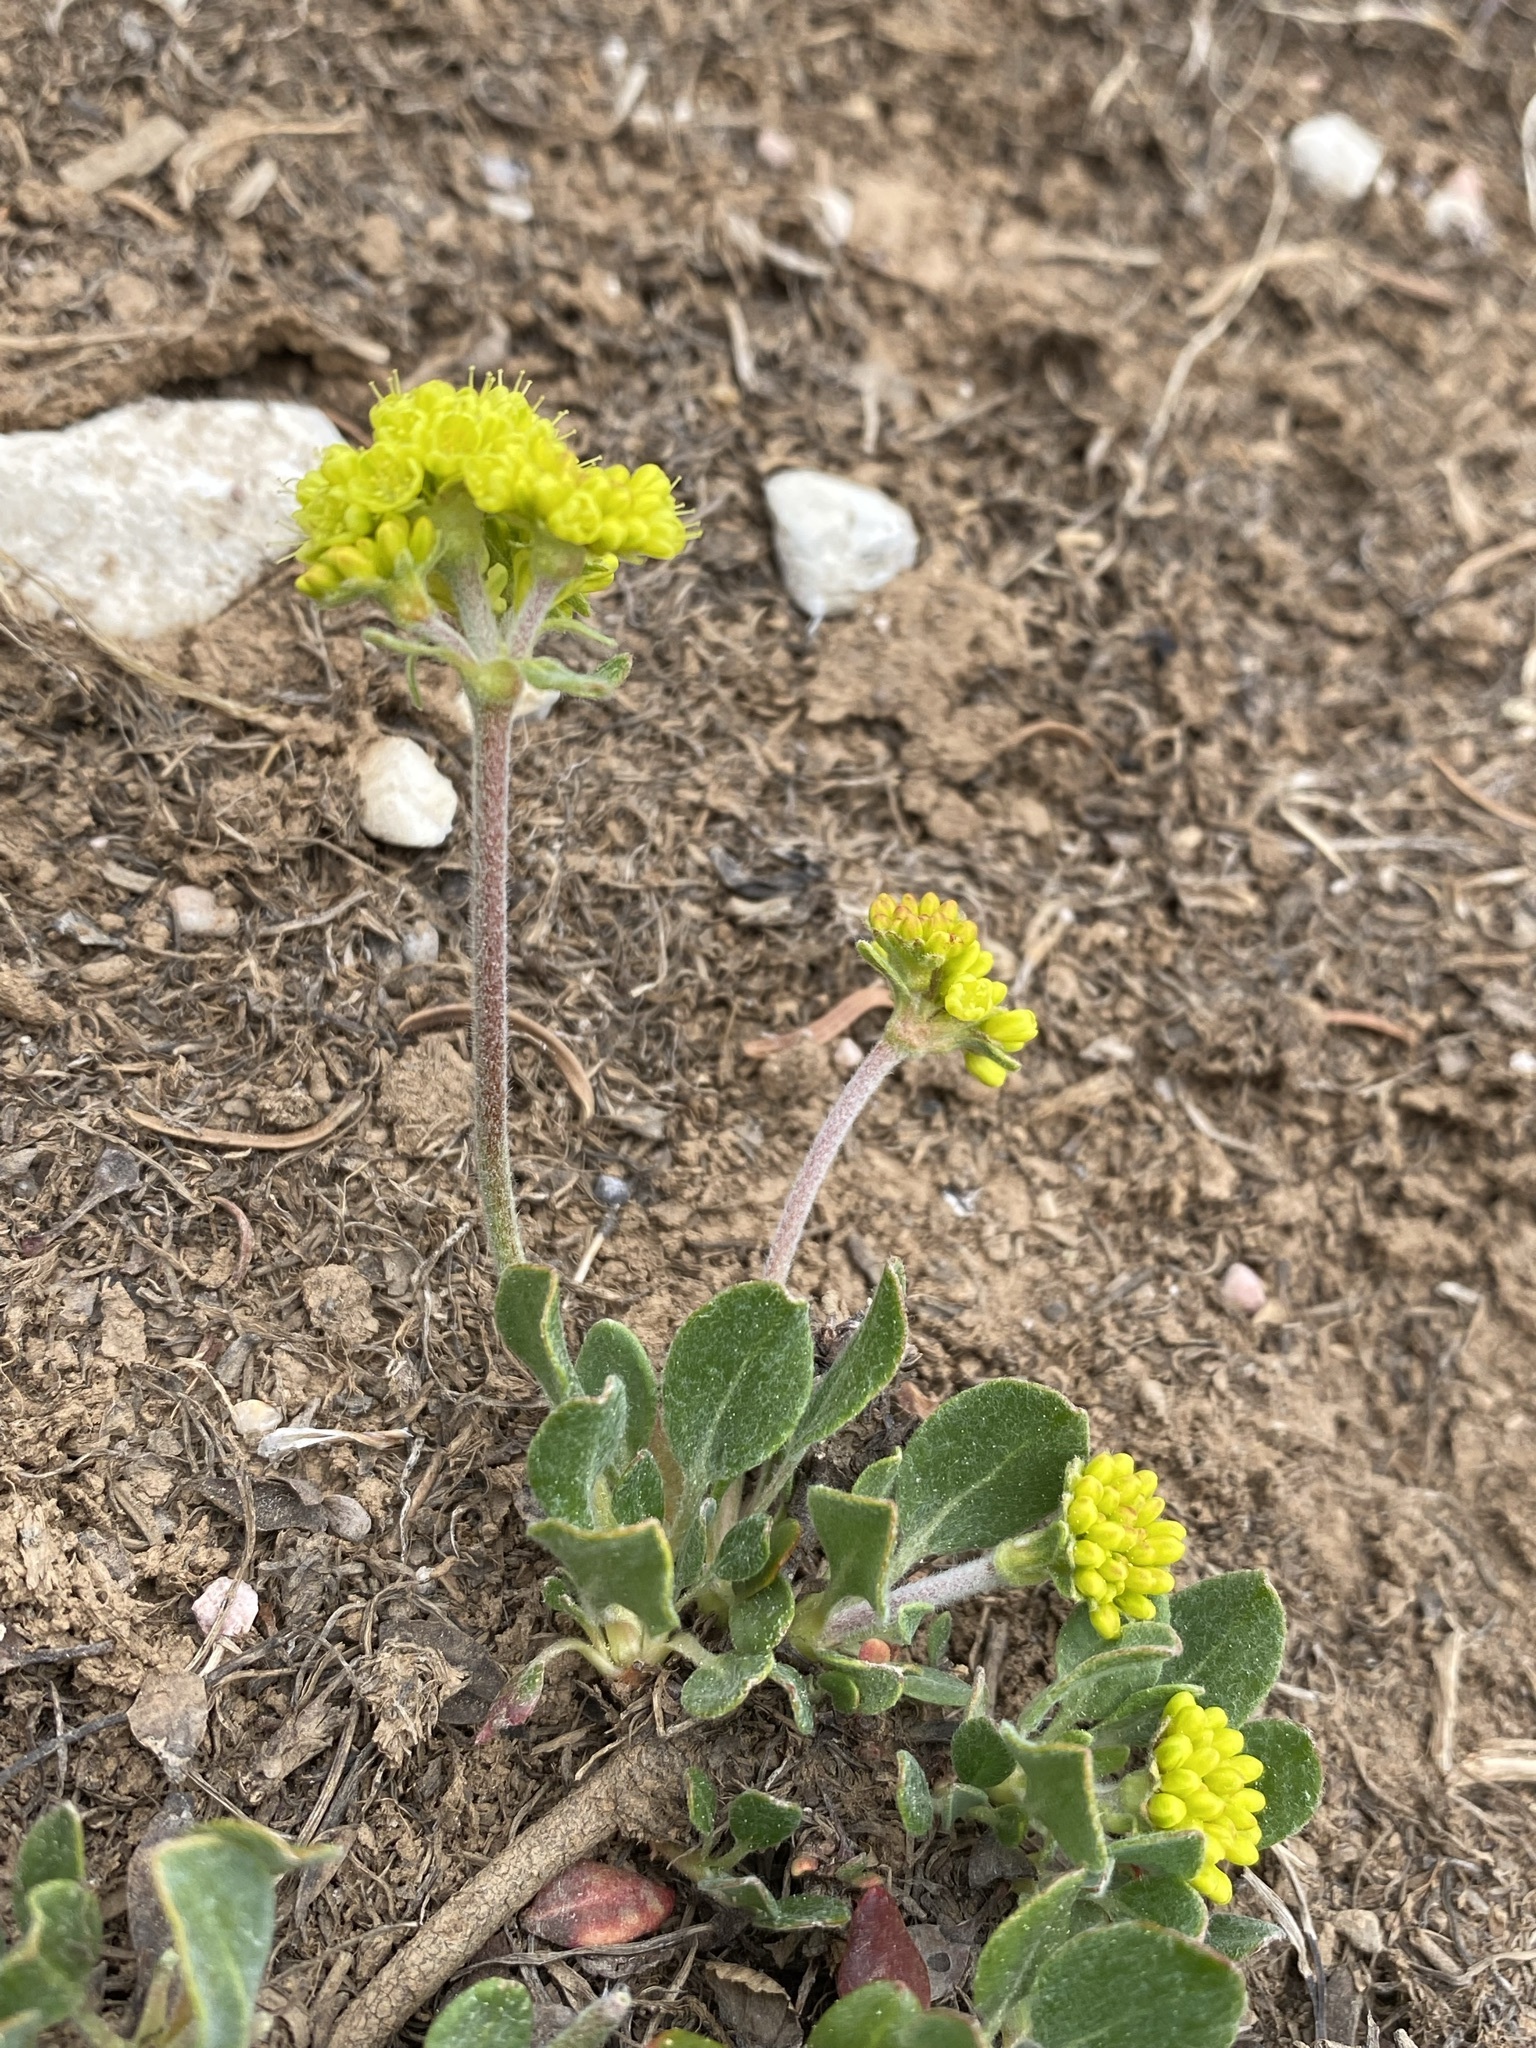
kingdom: Plantae
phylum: Tracheophyta
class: Magnoliopsida
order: Caryophyllales
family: Polygonaceae
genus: Eriogonum
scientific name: Eriogonum umbellatum
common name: Sulfur-buckwheat
